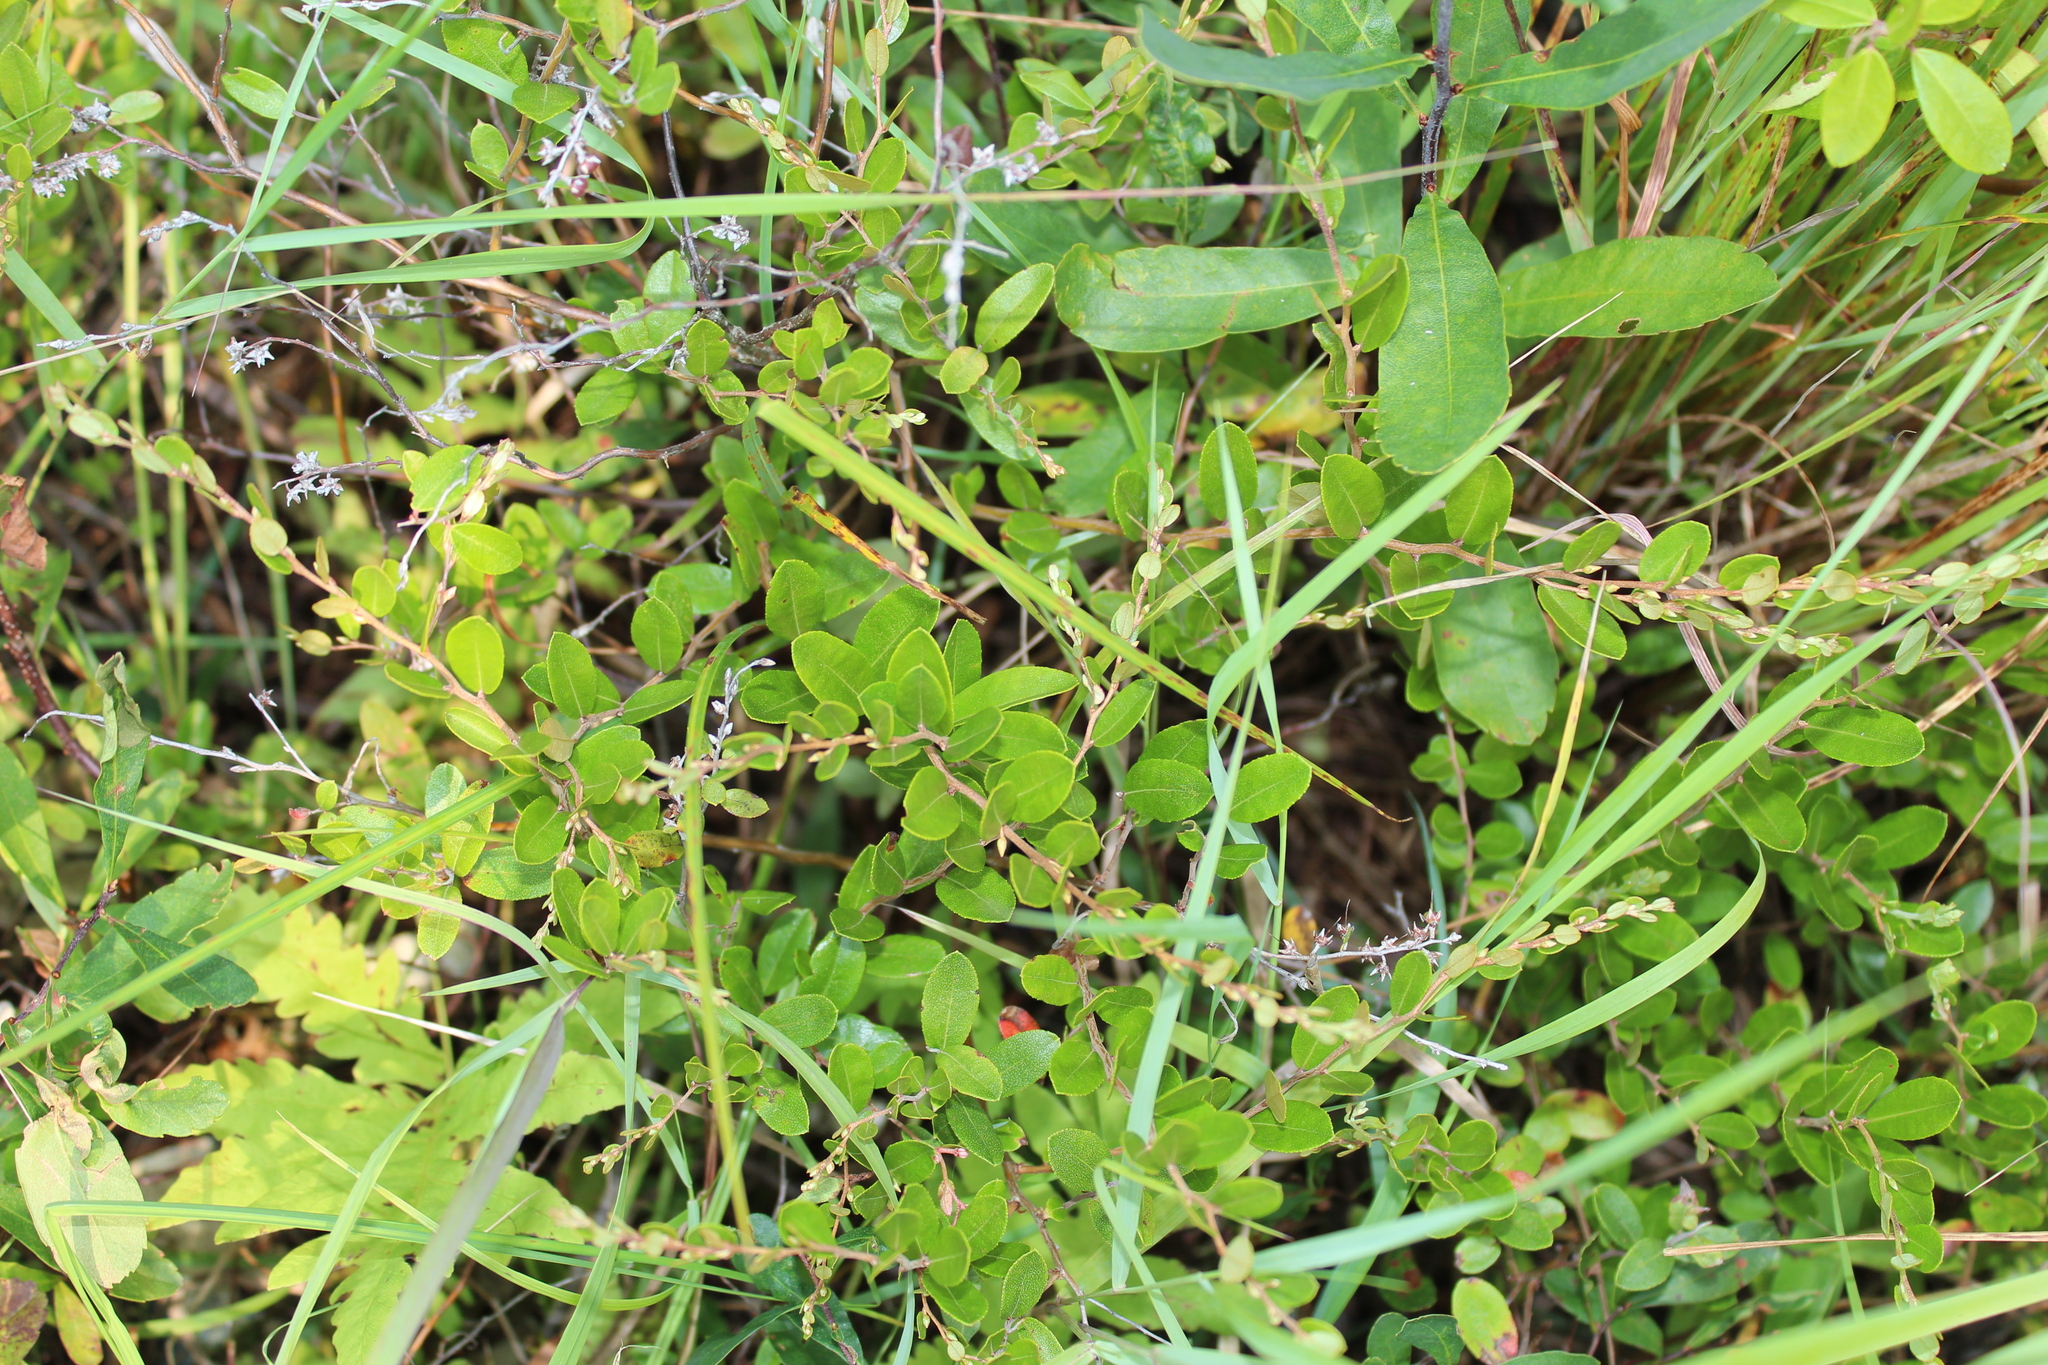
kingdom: Plantae
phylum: Tracheophyta
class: Magnoliopsida
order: Ericales
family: Ericaceae
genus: Chamaedaphne
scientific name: Chamaedaphne calyculata
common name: Leatherleaf
